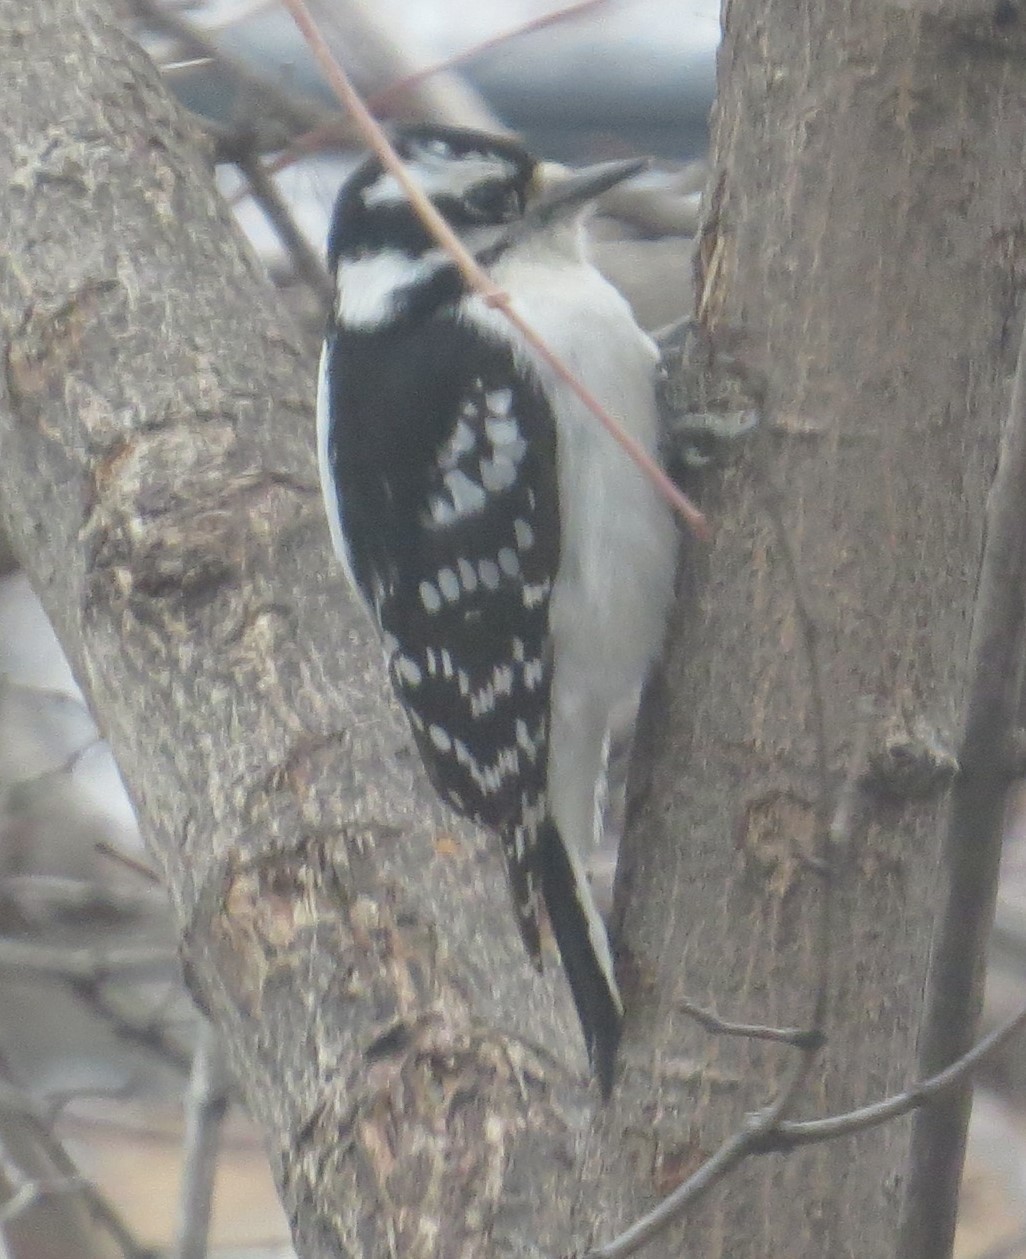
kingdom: Animalia
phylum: Chordata
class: Aves
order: Piciformes
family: Picidae
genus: Dryobates
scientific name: Dryobates pubescens
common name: Downy woodpecker
